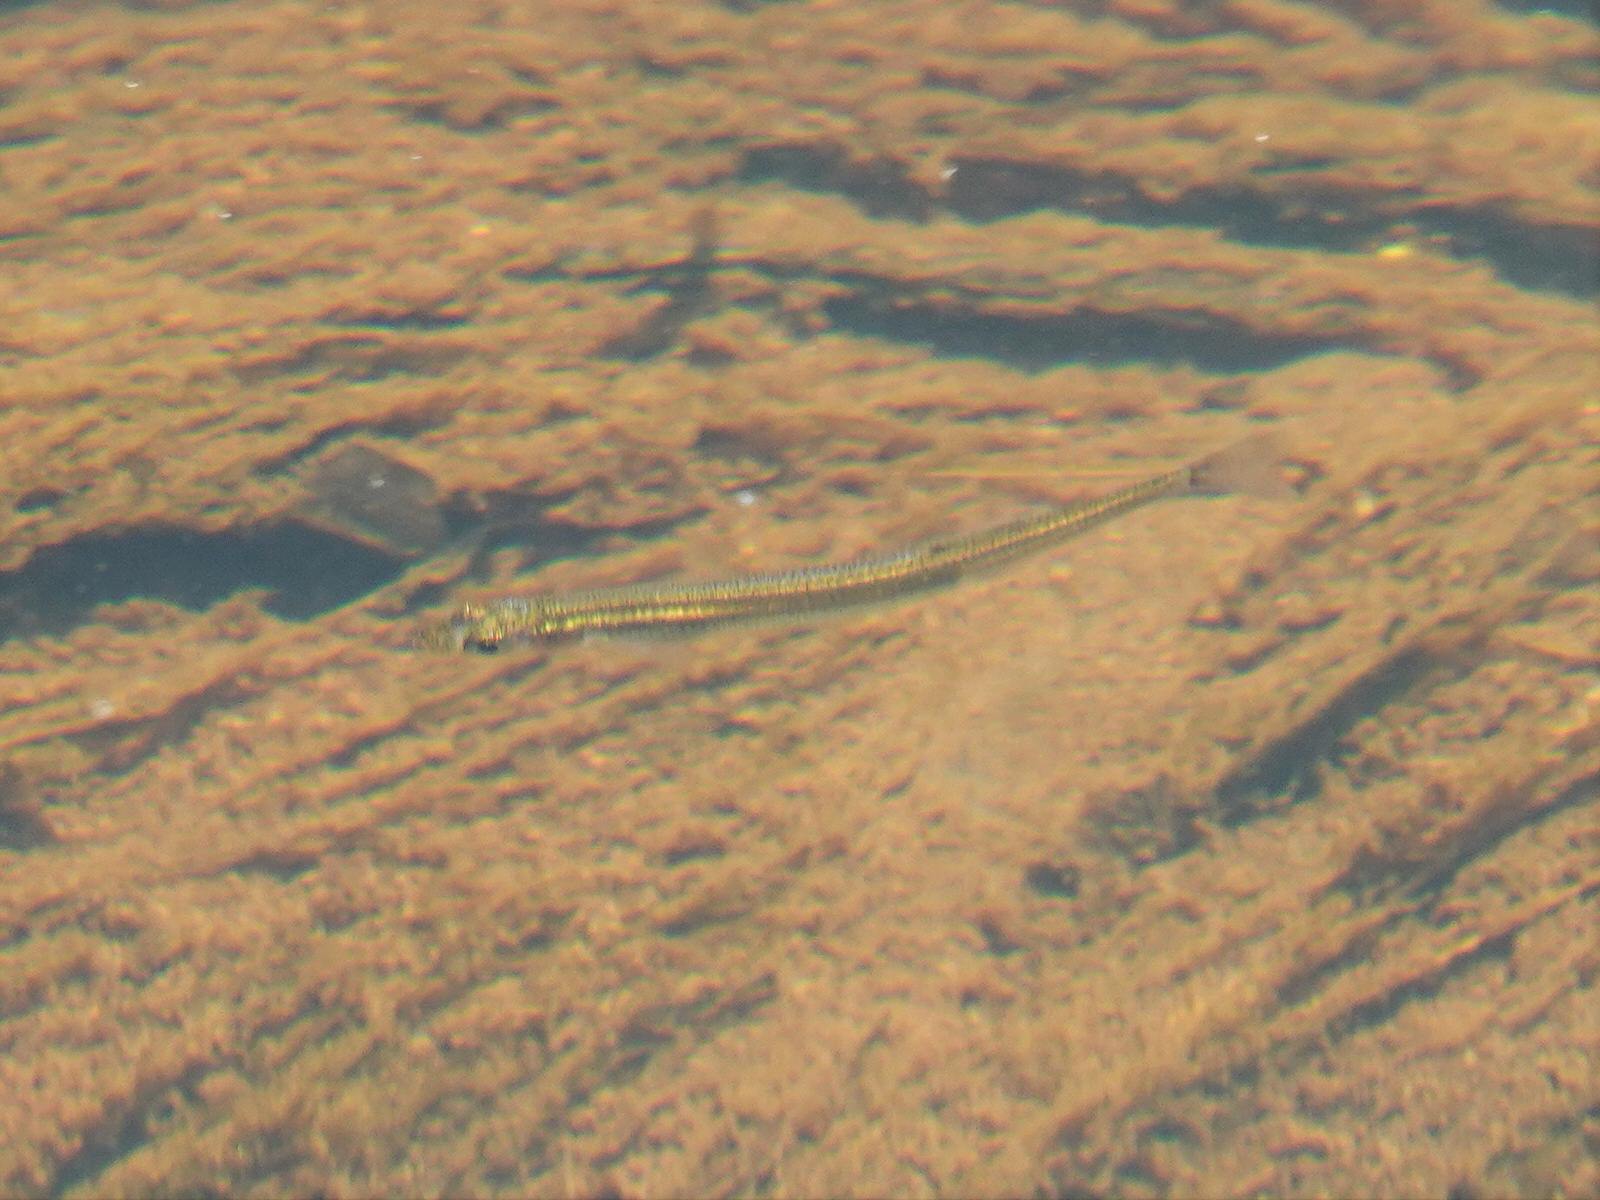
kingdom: Animalia
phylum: Chordata
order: Osmeriformes
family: Galaxiidae
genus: Galaxias
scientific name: Galaxias maculatus
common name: Common galaxias
